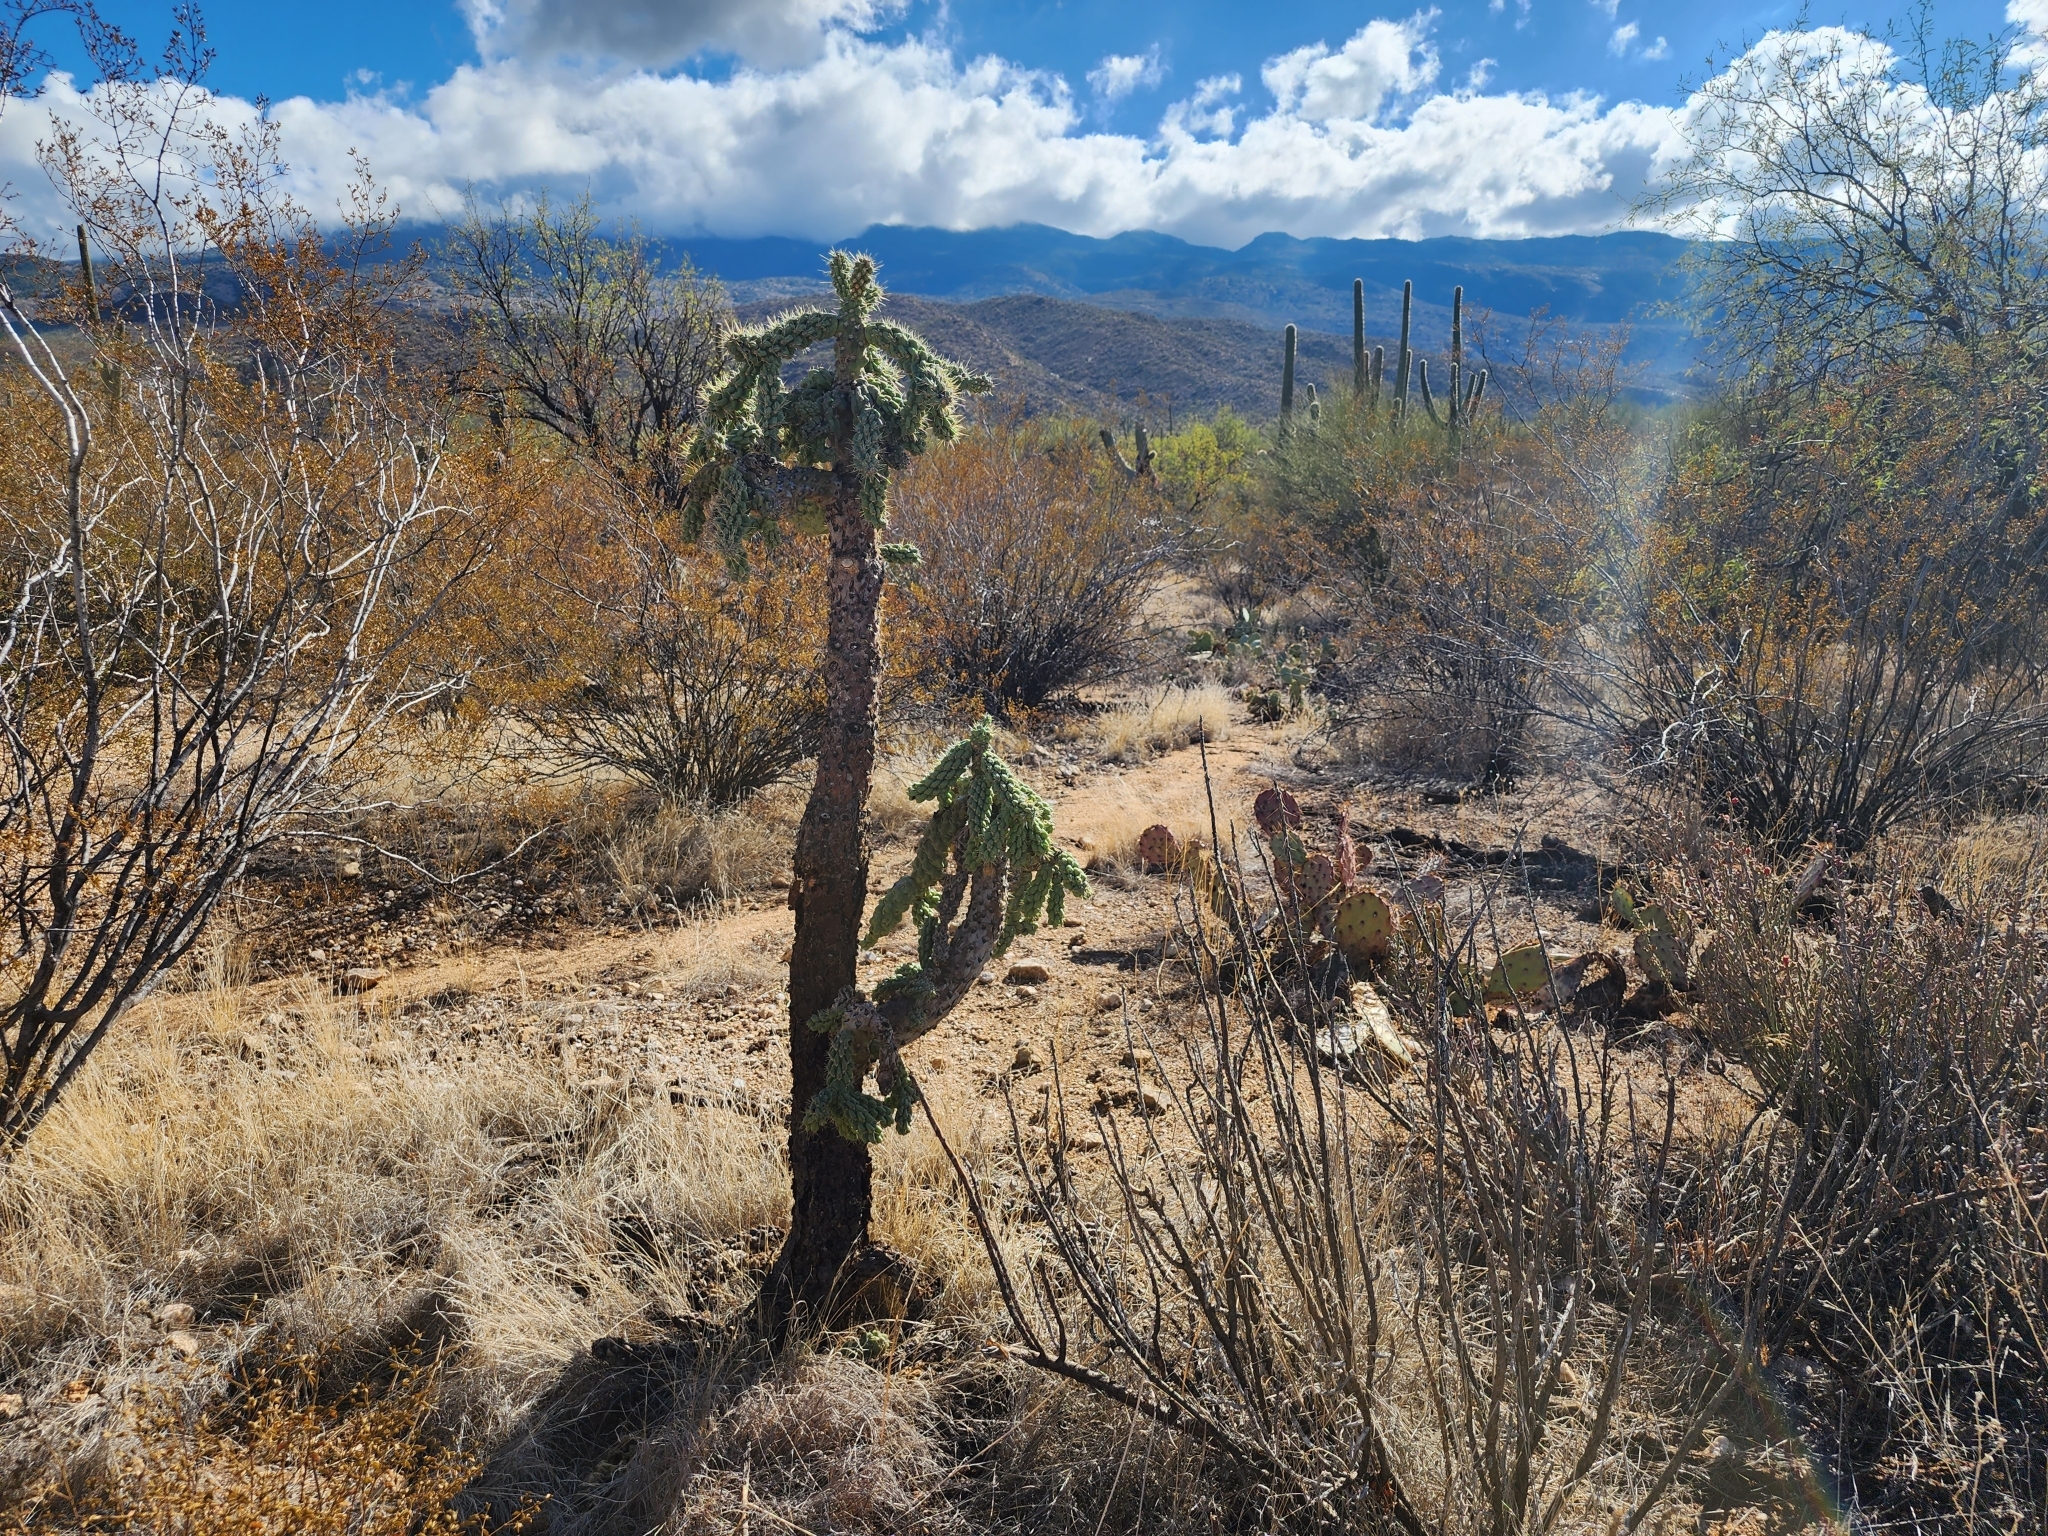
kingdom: Plantae
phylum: Tracheophyta
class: Magnoliopsida
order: Caryophyllales
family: Cactaceae
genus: Cylindropuntia
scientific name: Cylindropuntia fulgida
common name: Jumping cholla
